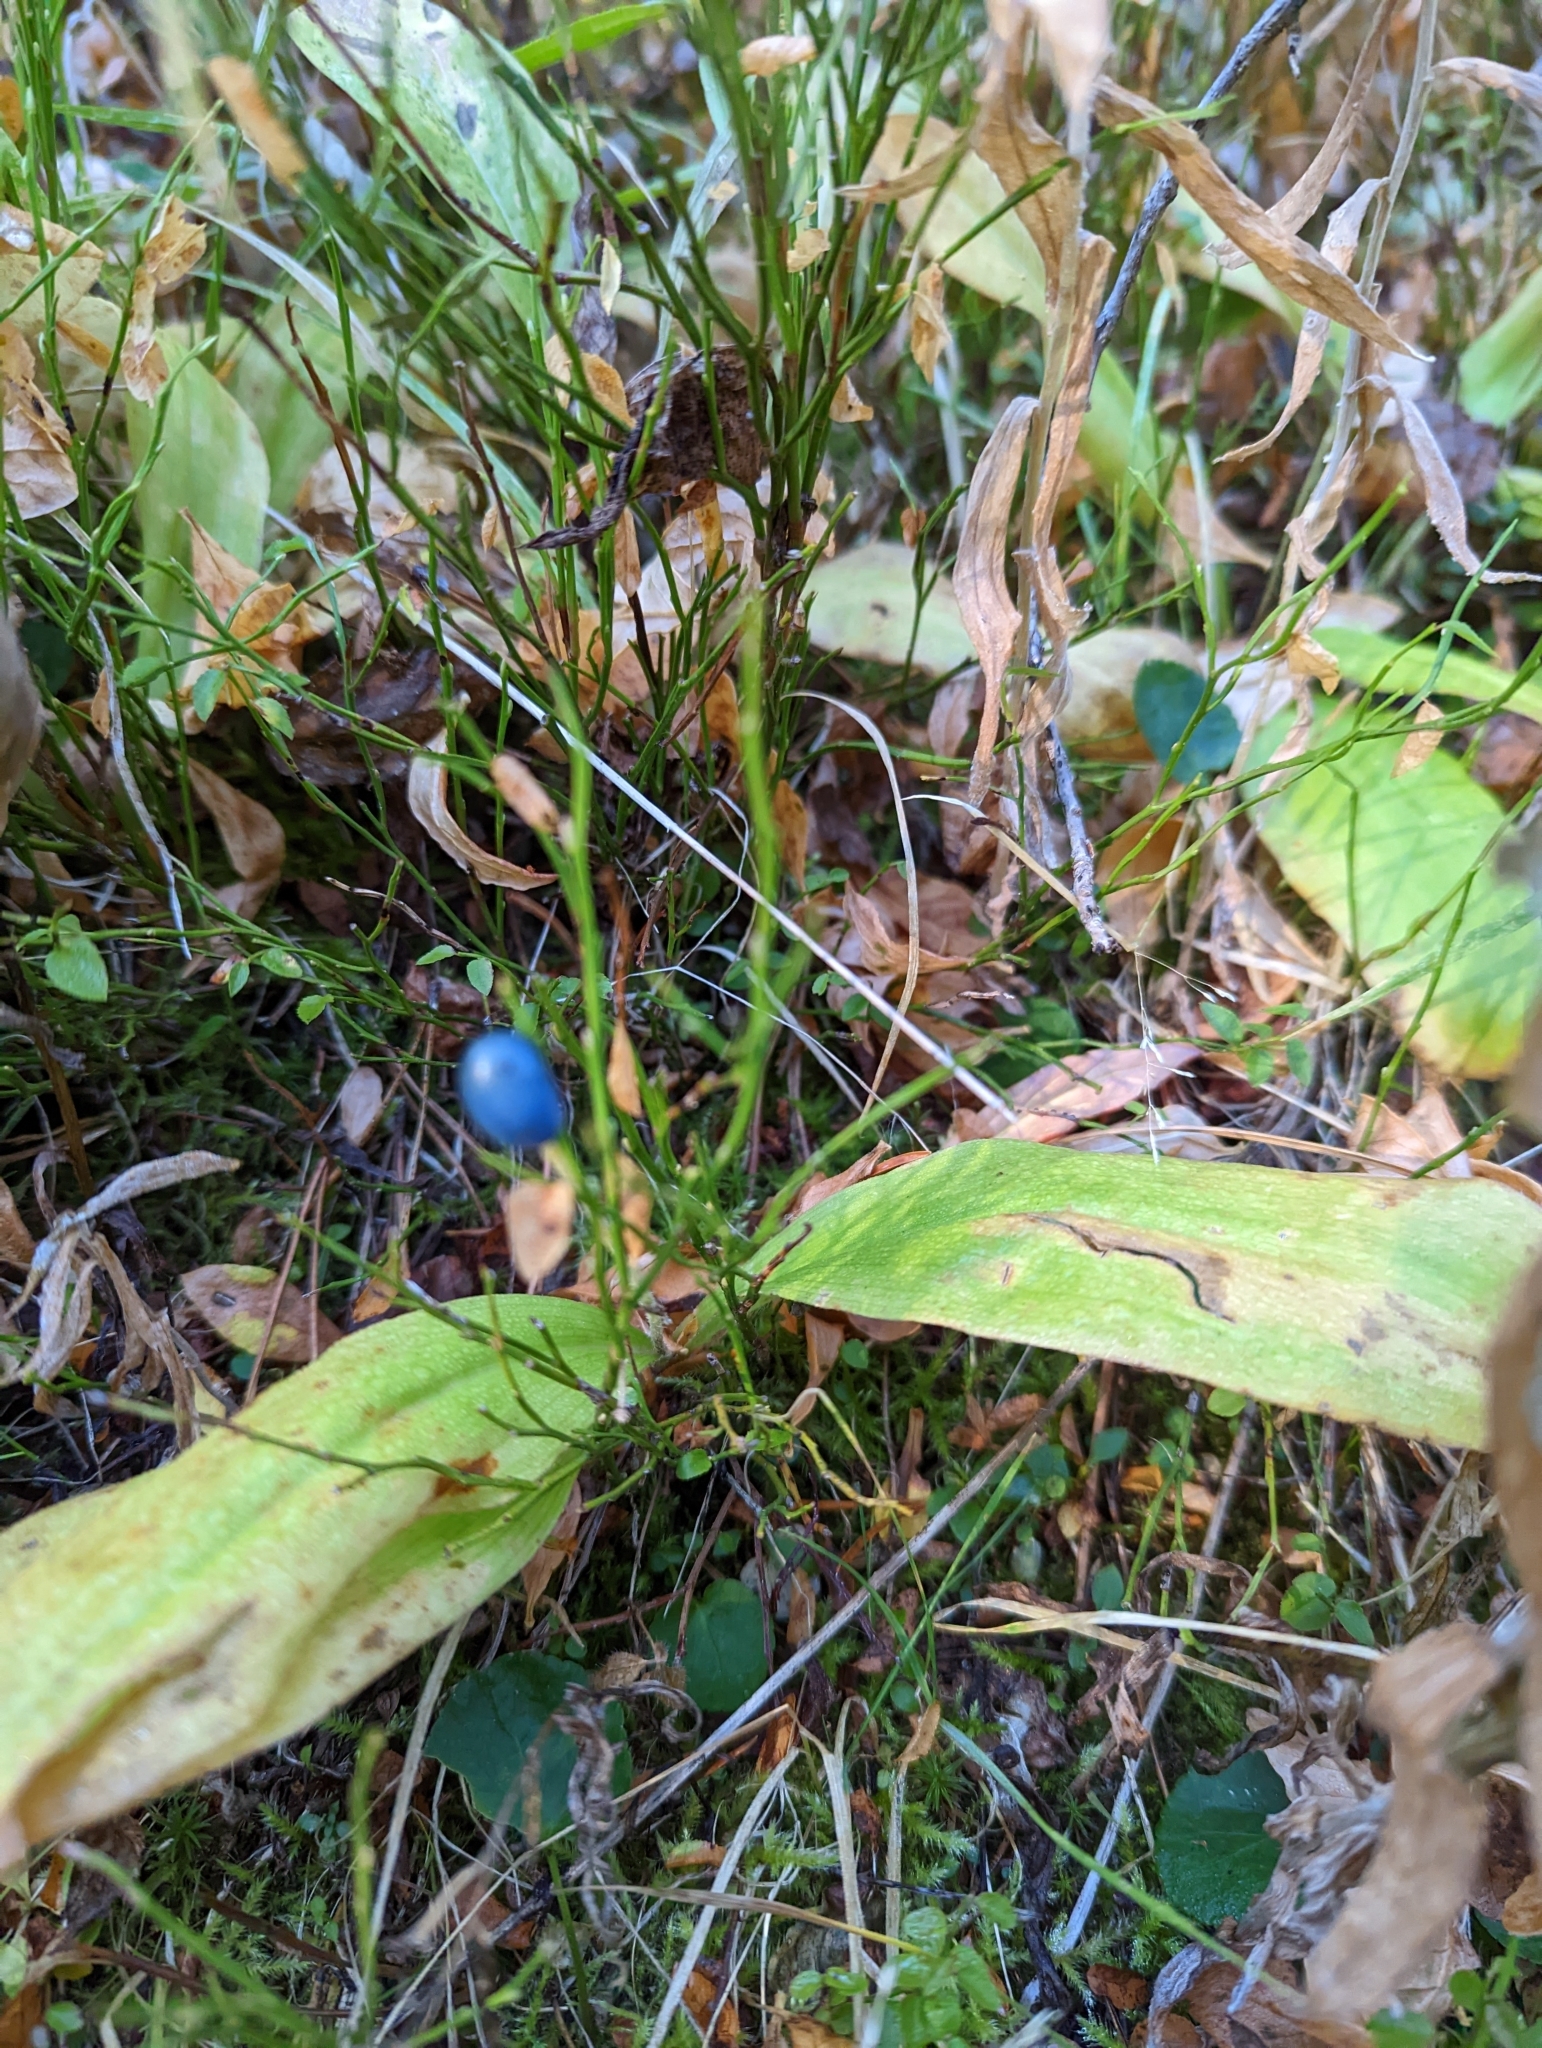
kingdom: Plantae
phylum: Tracheophyta
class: Liliopsida
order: Liliales
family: Liliaceae
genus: Clintonia
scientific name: Clintonia uniflora
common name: Queen's cup
